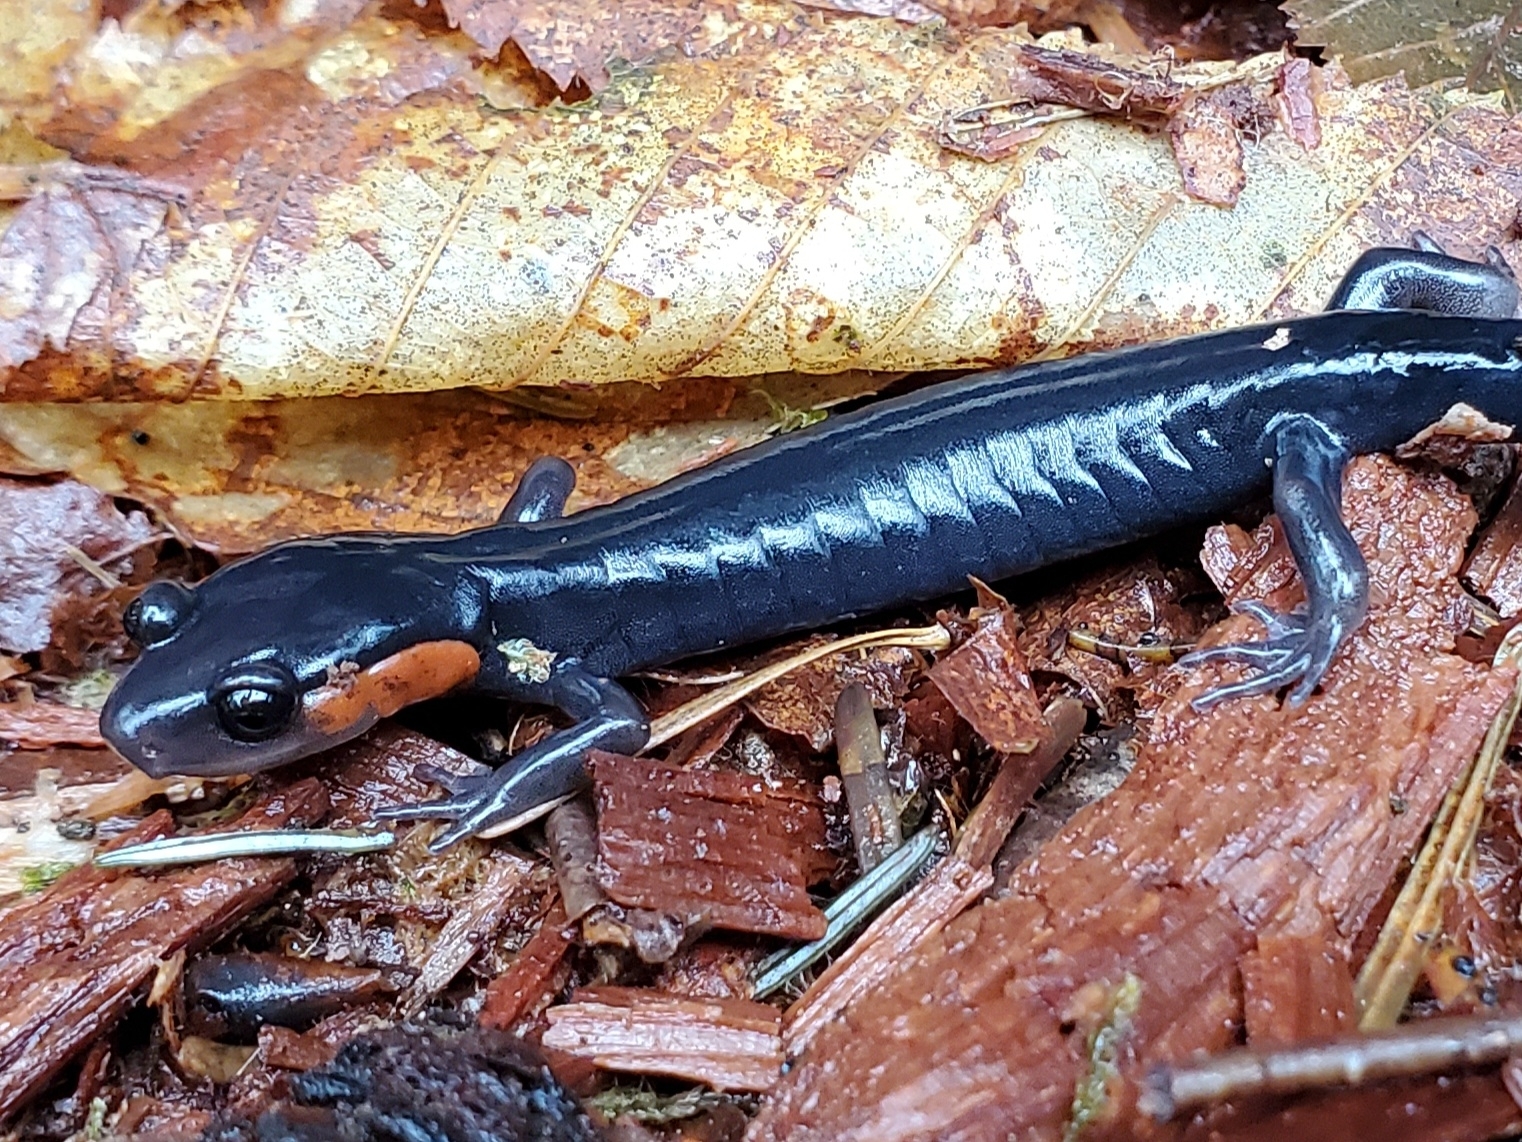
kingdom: Animalia
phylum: Chordata
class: Amphibia
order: Caudata
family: Plethodontidae
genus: Plethodon
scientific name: Plethodon jordani
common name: Red-cheeked salamander
